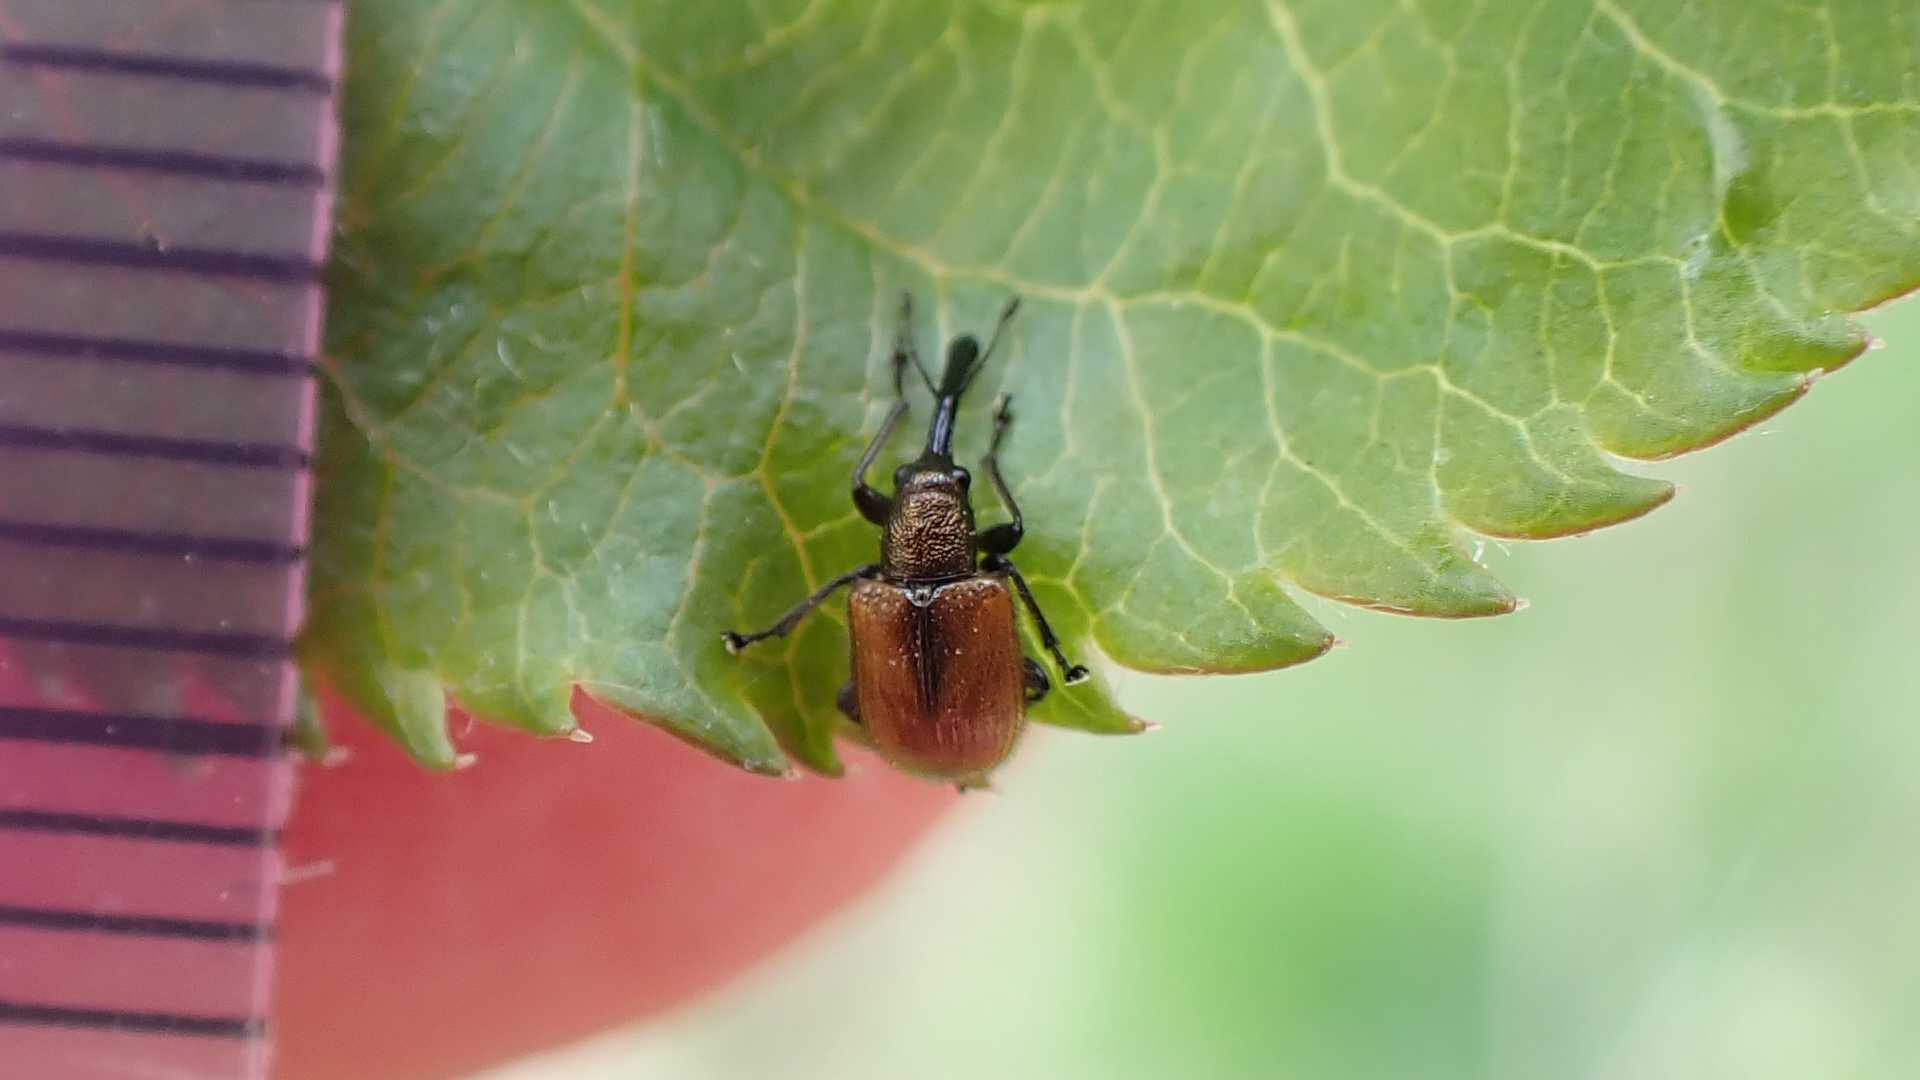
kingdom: Animalia
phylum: Arthropoda
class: Insecta
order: Coleoptera
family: Rhynchitidae
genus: Tatianaerhynchites
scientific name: Tatianaerhynchites aequatus
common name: Apple fruit rhynchites
